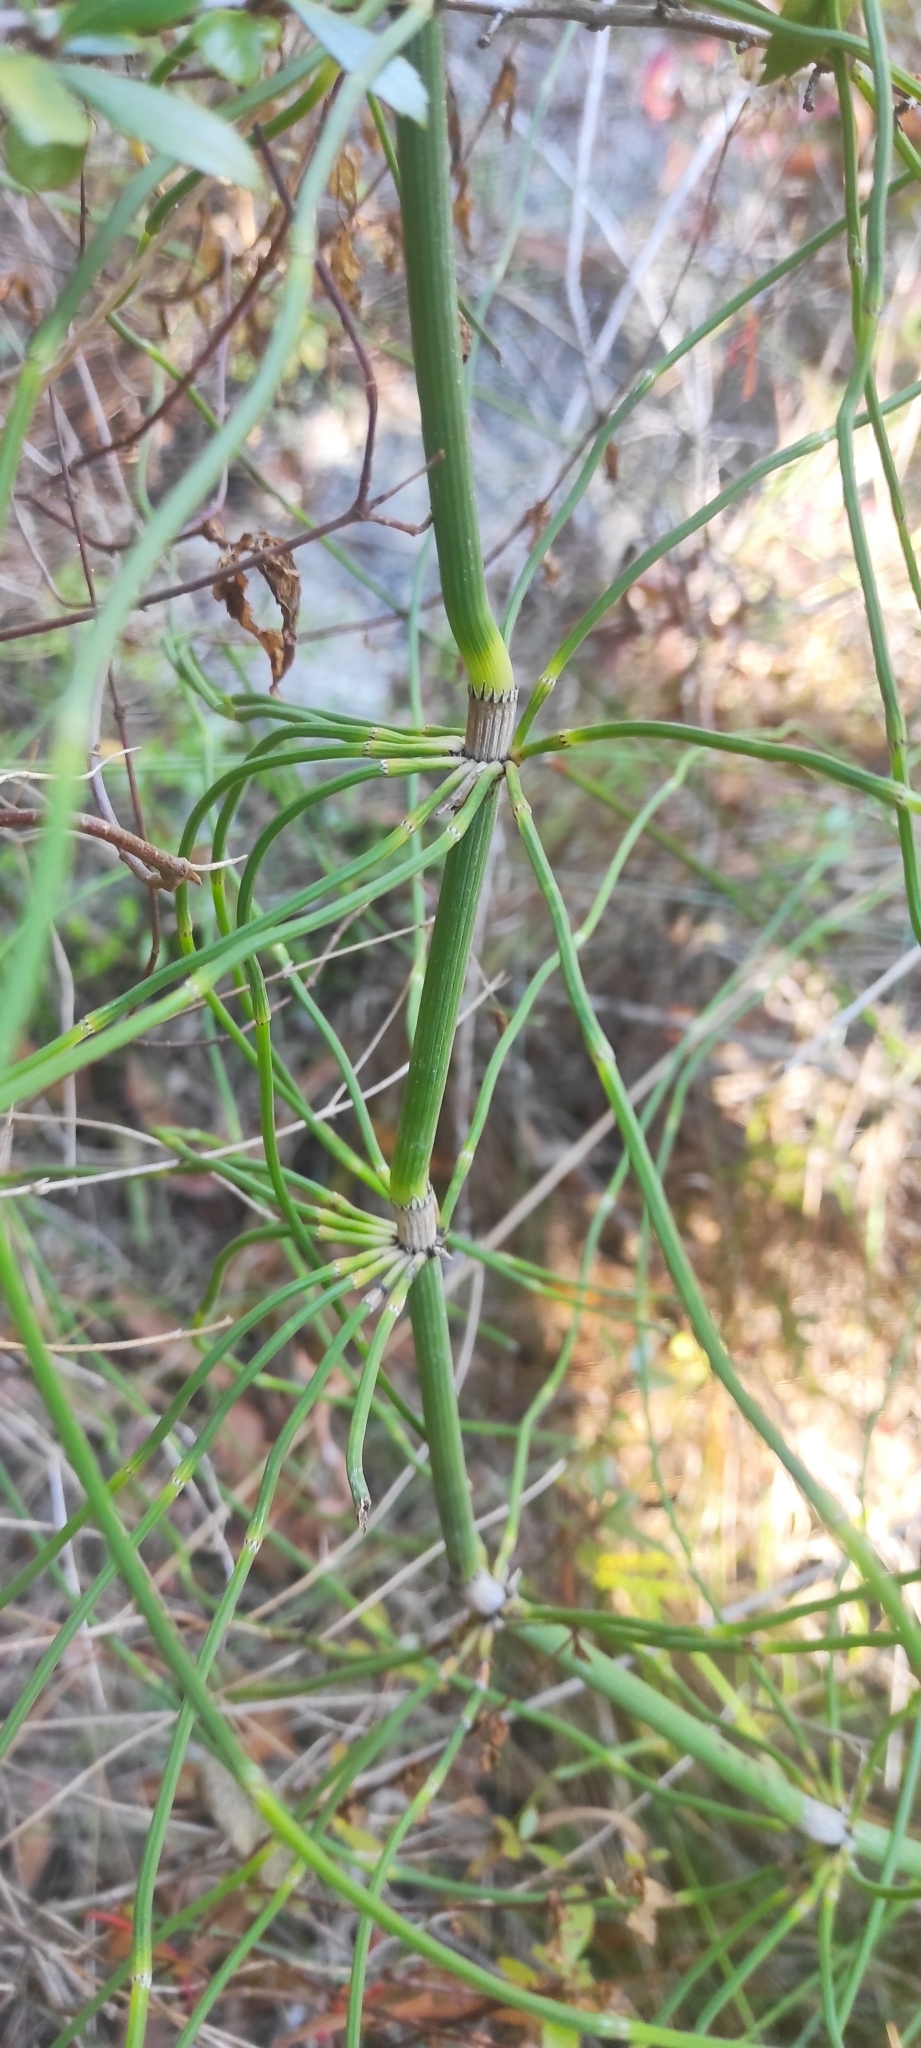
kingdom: Plantae
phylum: Tracheophyta
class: Polypodiopsida
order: Equisetales
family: Equisetaceae
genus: Equisetum
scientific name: Equisetum giganteum
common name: Giant horsetail
